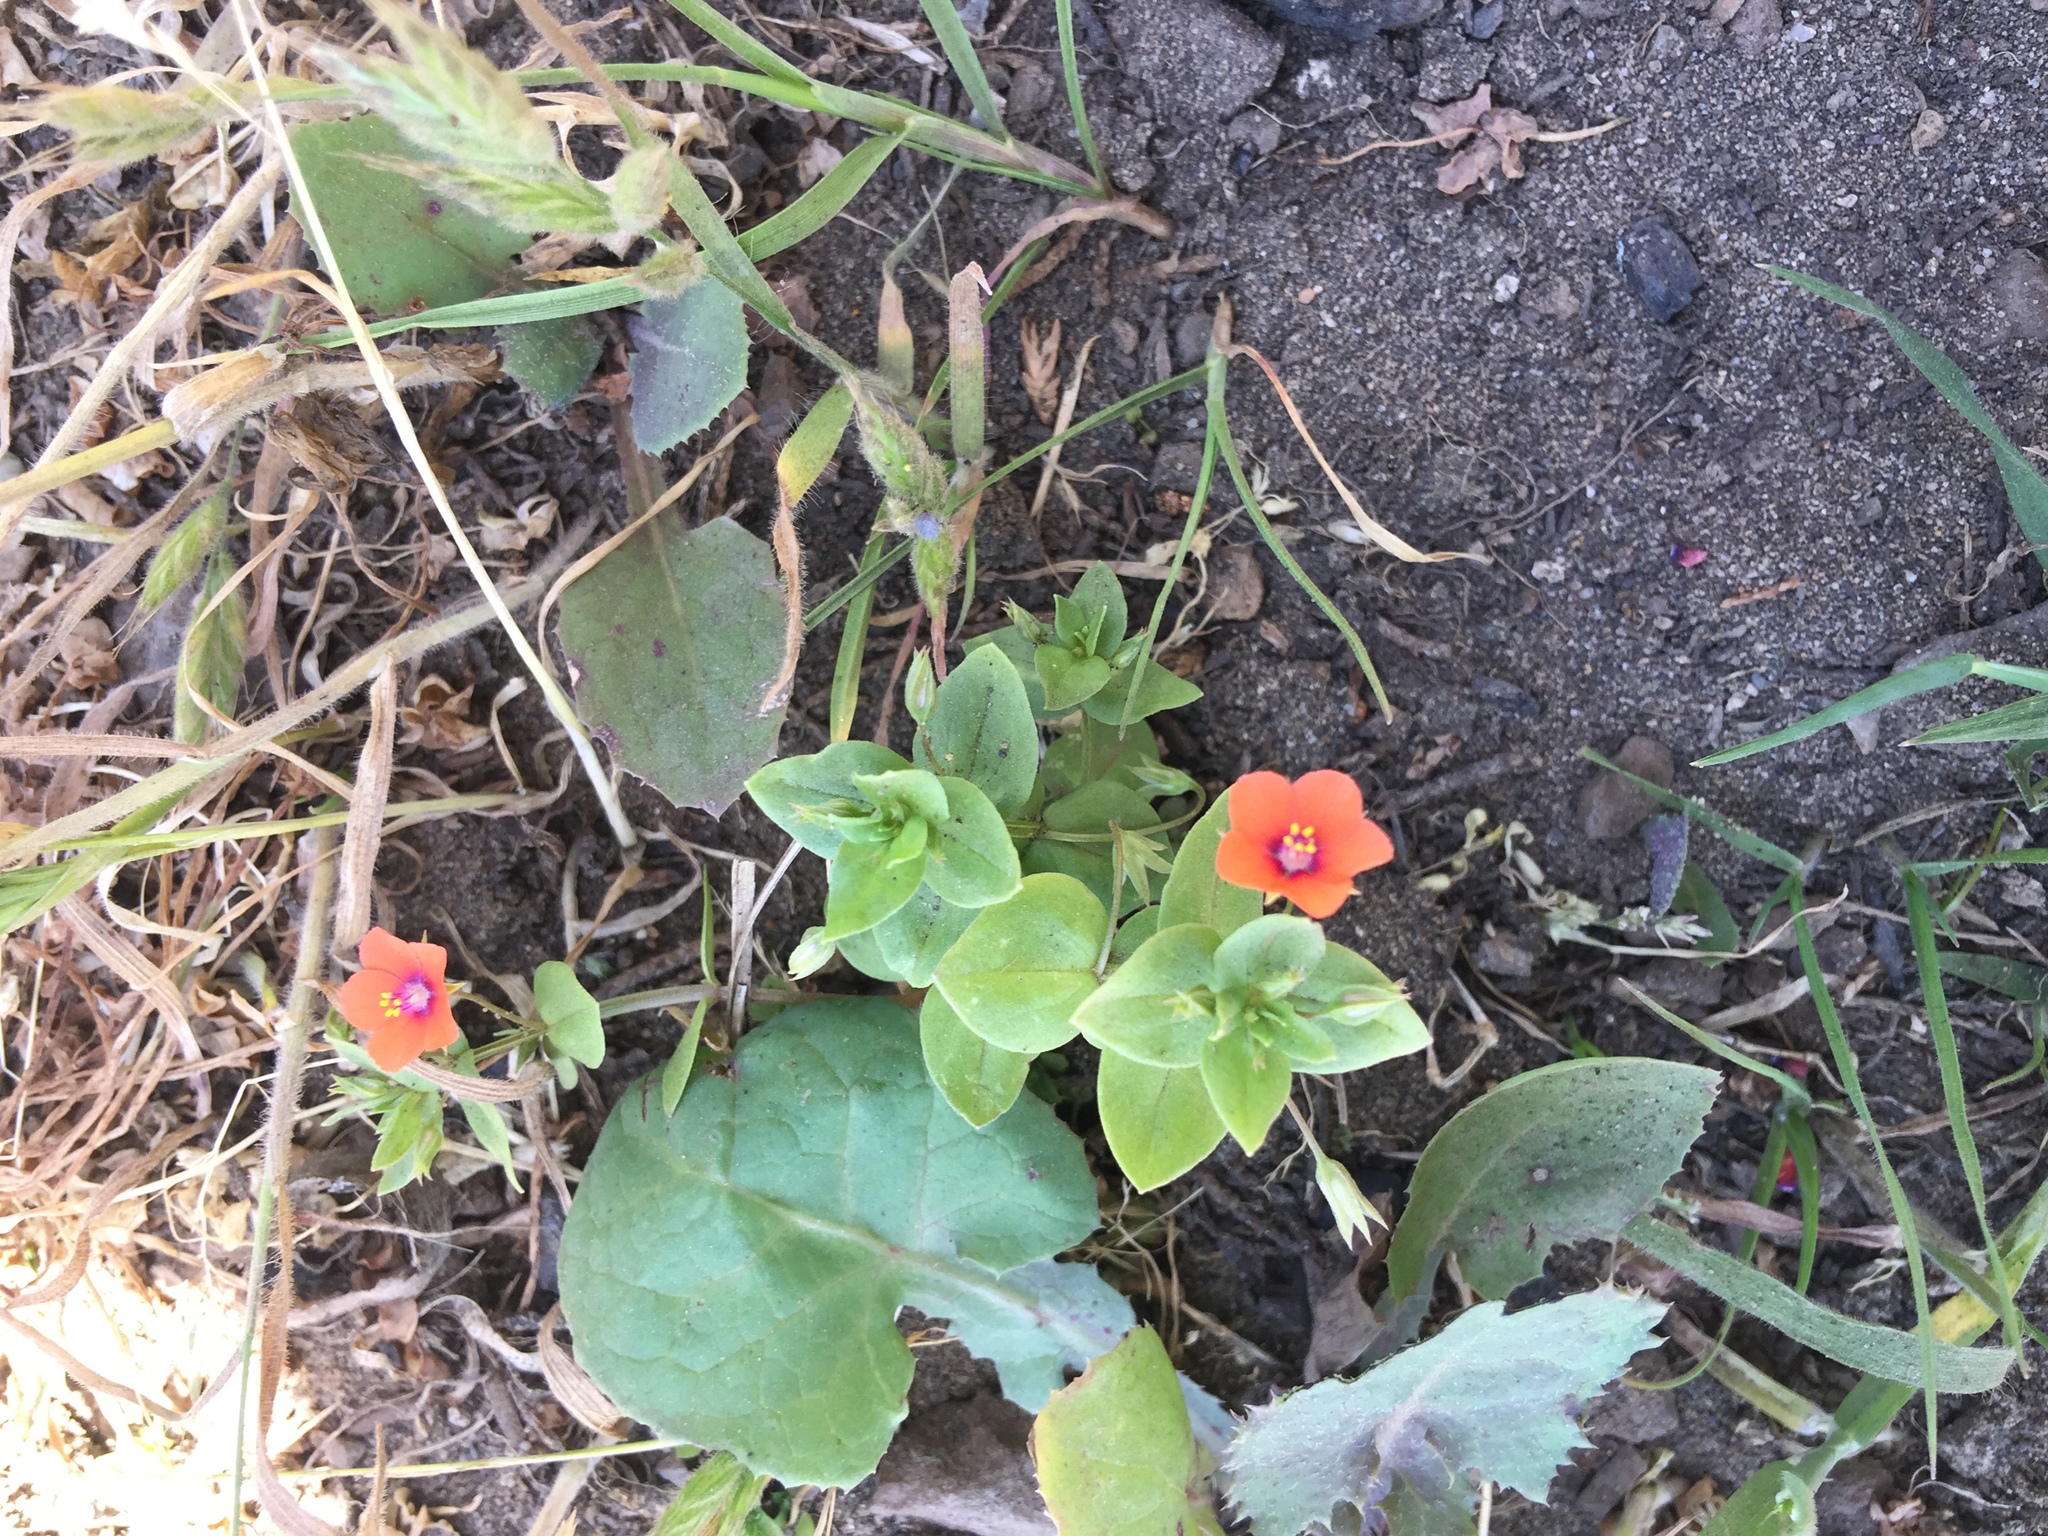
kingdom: Plantae
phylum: Tracheophyta
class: Magnoliopsida
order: Ericales
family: Primulaceae
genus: Lysimachia
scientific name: Lysimachia arvensis
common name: Scarlet pimpernel
